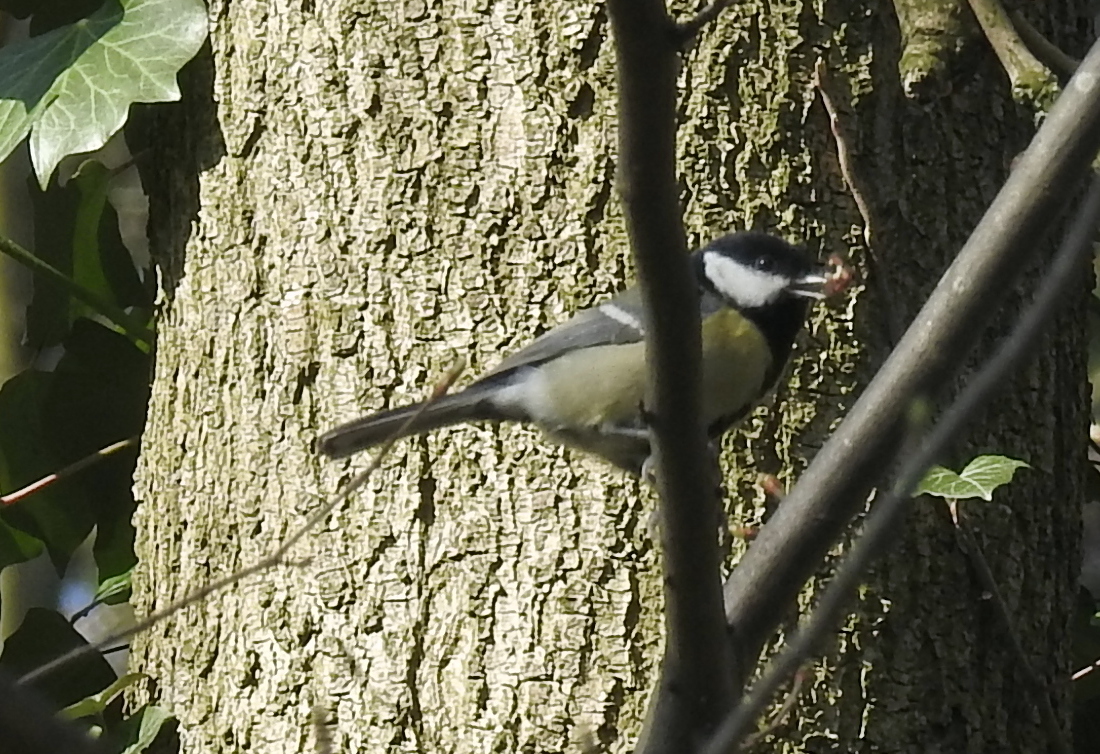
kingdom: Animalia
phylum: Chordata
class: Aves
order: Passeriformes
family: Paridae
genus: Parus
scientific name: Parus major
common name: Great tit
